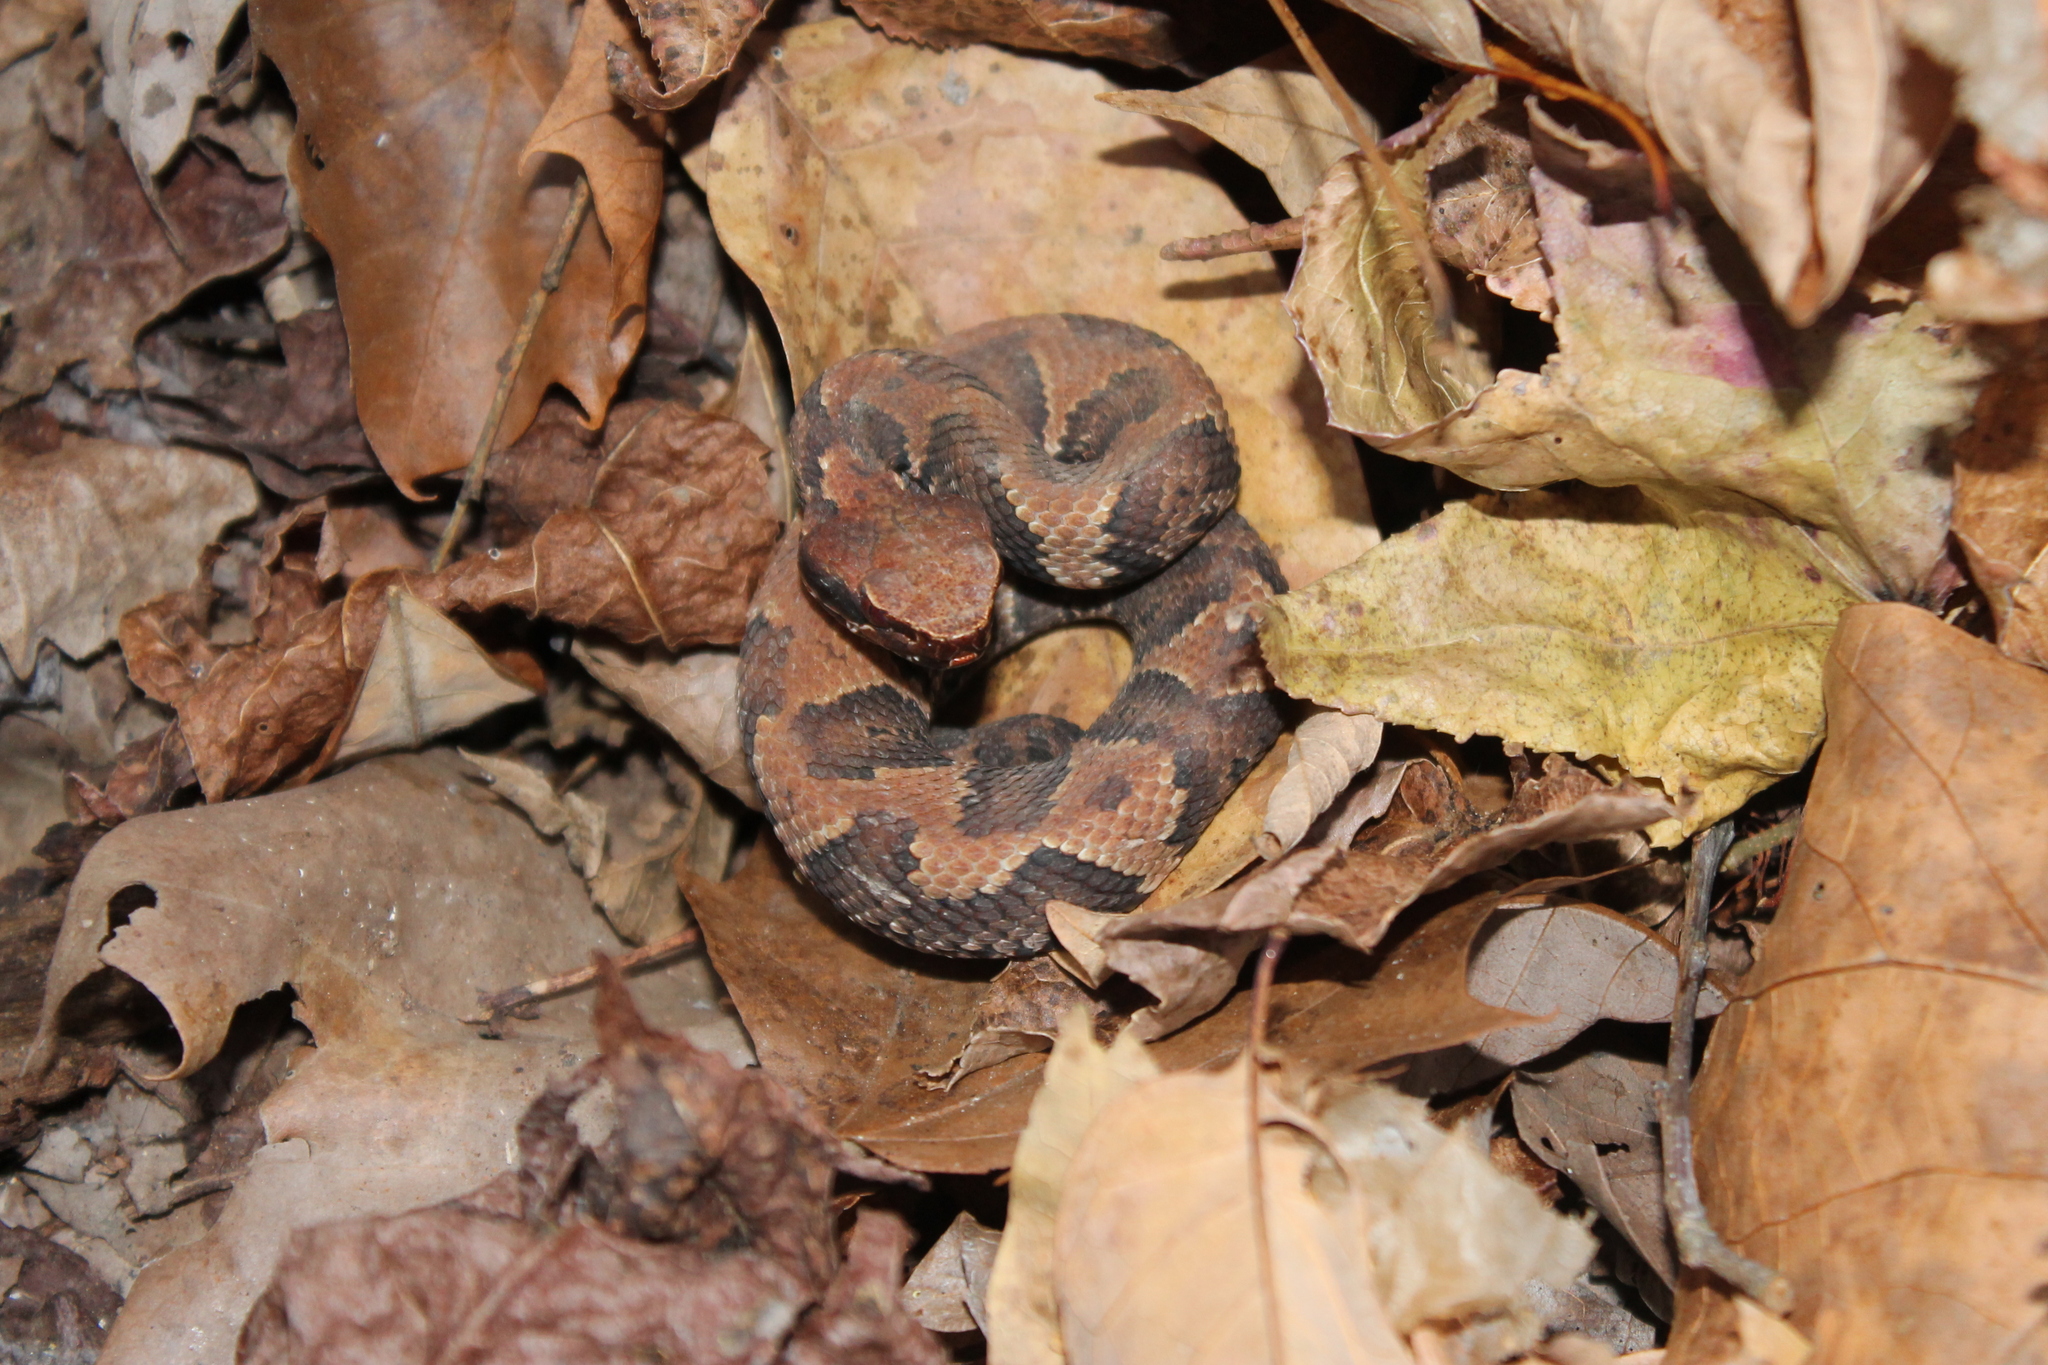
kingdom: Animalia
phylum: Chordata
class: Squamata
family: Viperidae
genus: Agkistrodon
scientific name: Agkistrodon piscivorus
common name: Cottonmouth
